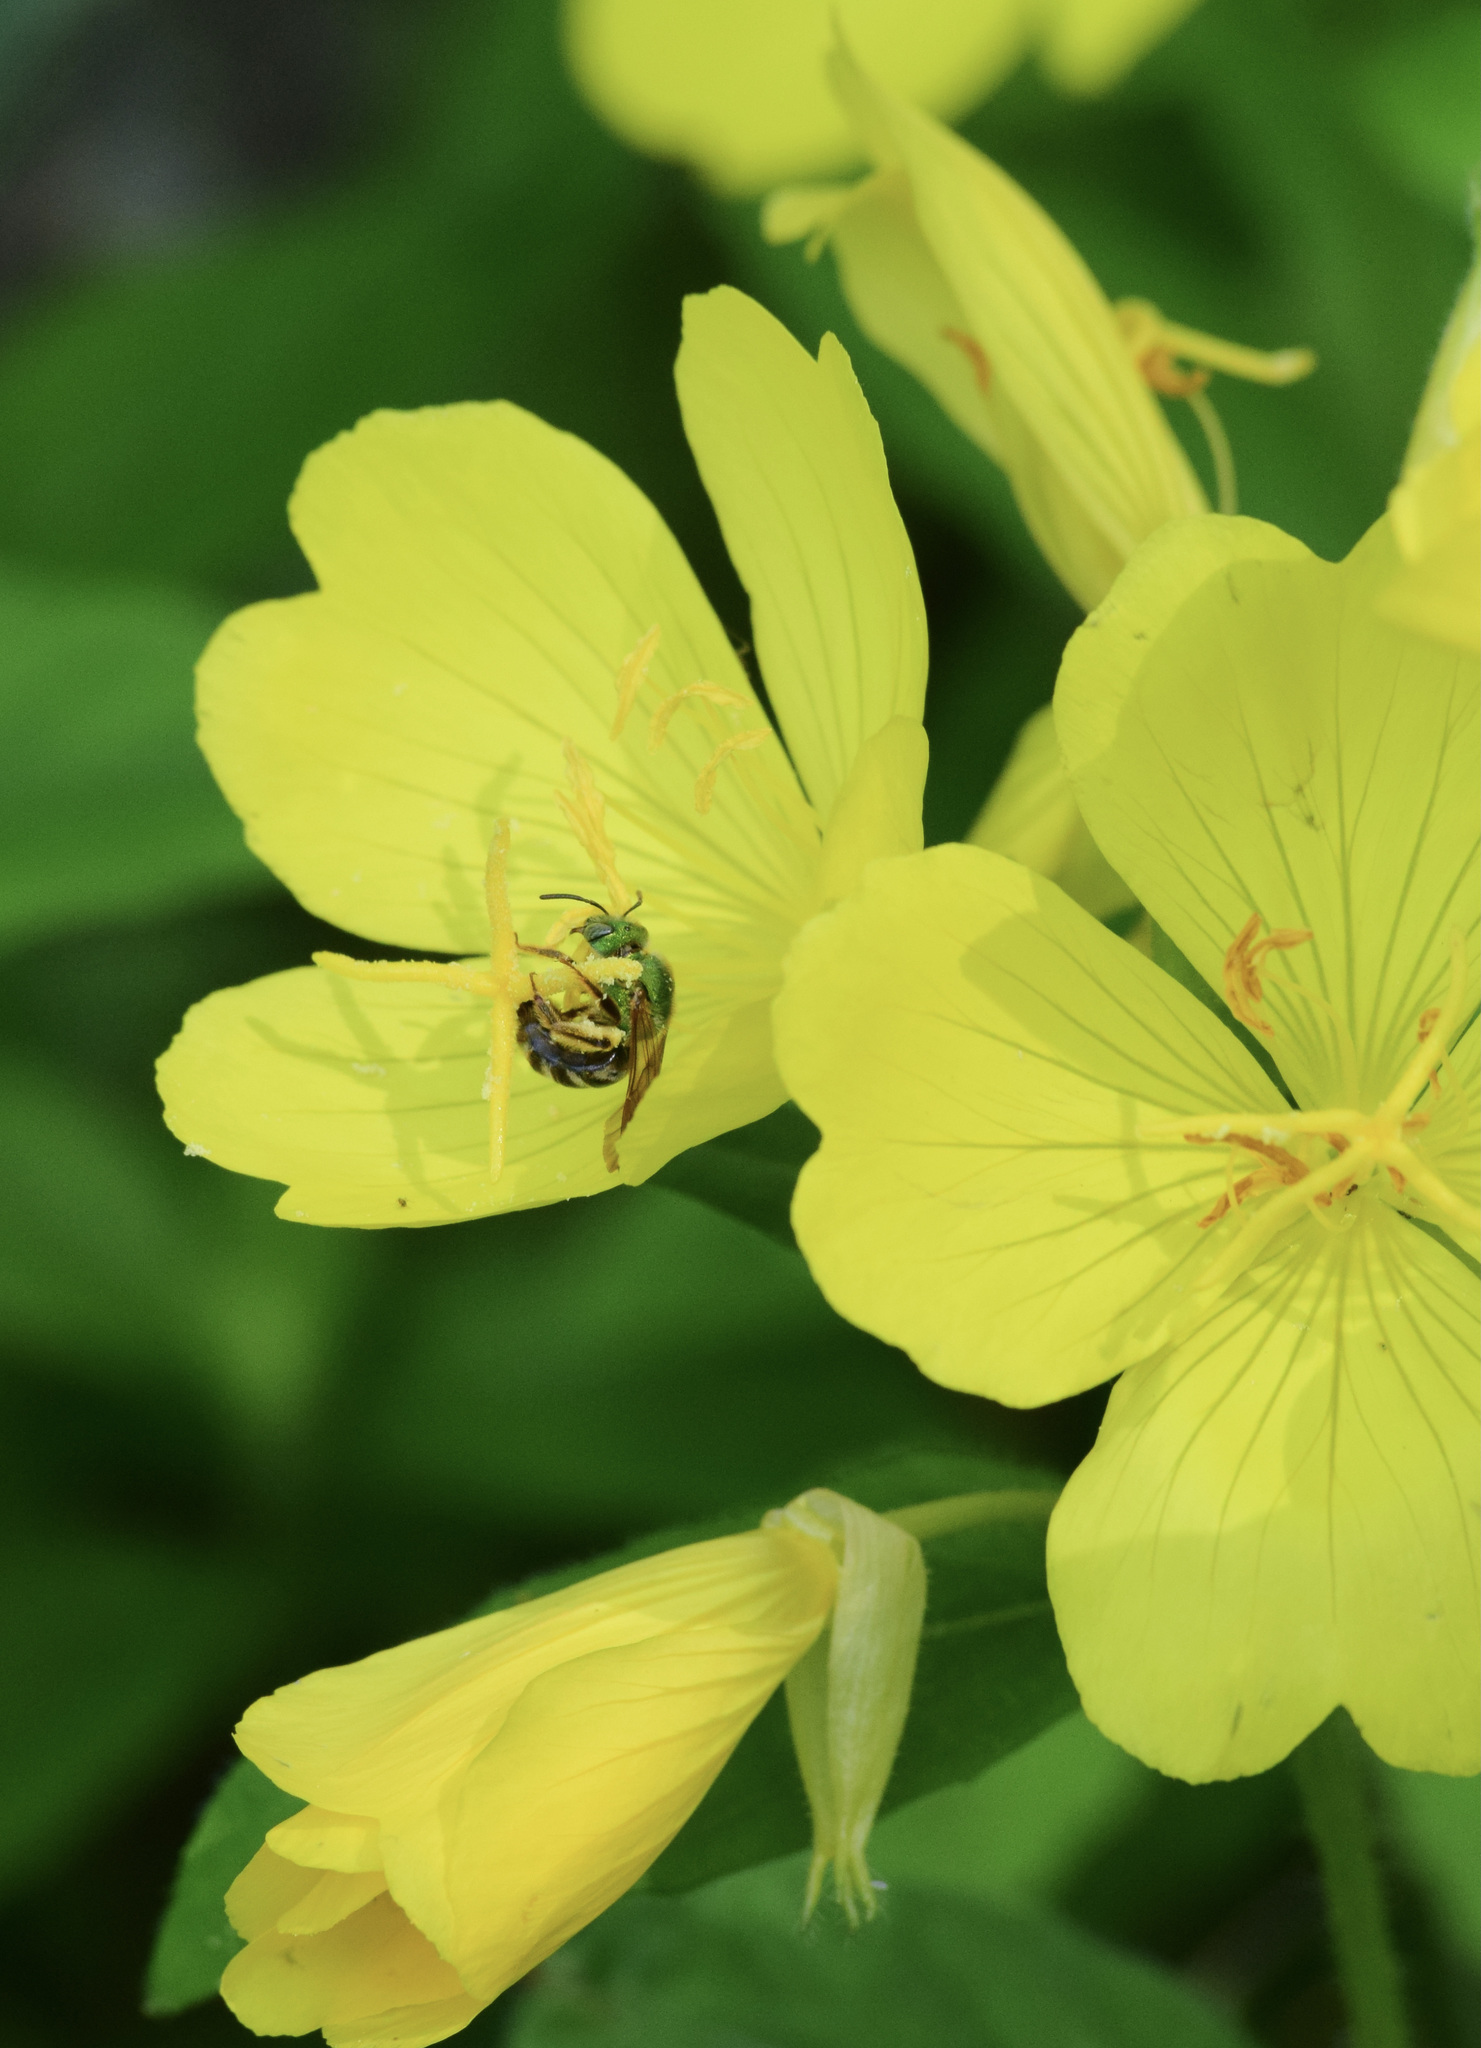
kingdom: Animalia
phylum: Arthropoda
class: Insecta
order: Hymenoptera
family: Halictidae
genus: Agapostemon
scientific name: Agapostemon virescens
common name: Bicolored striped sweat bee
